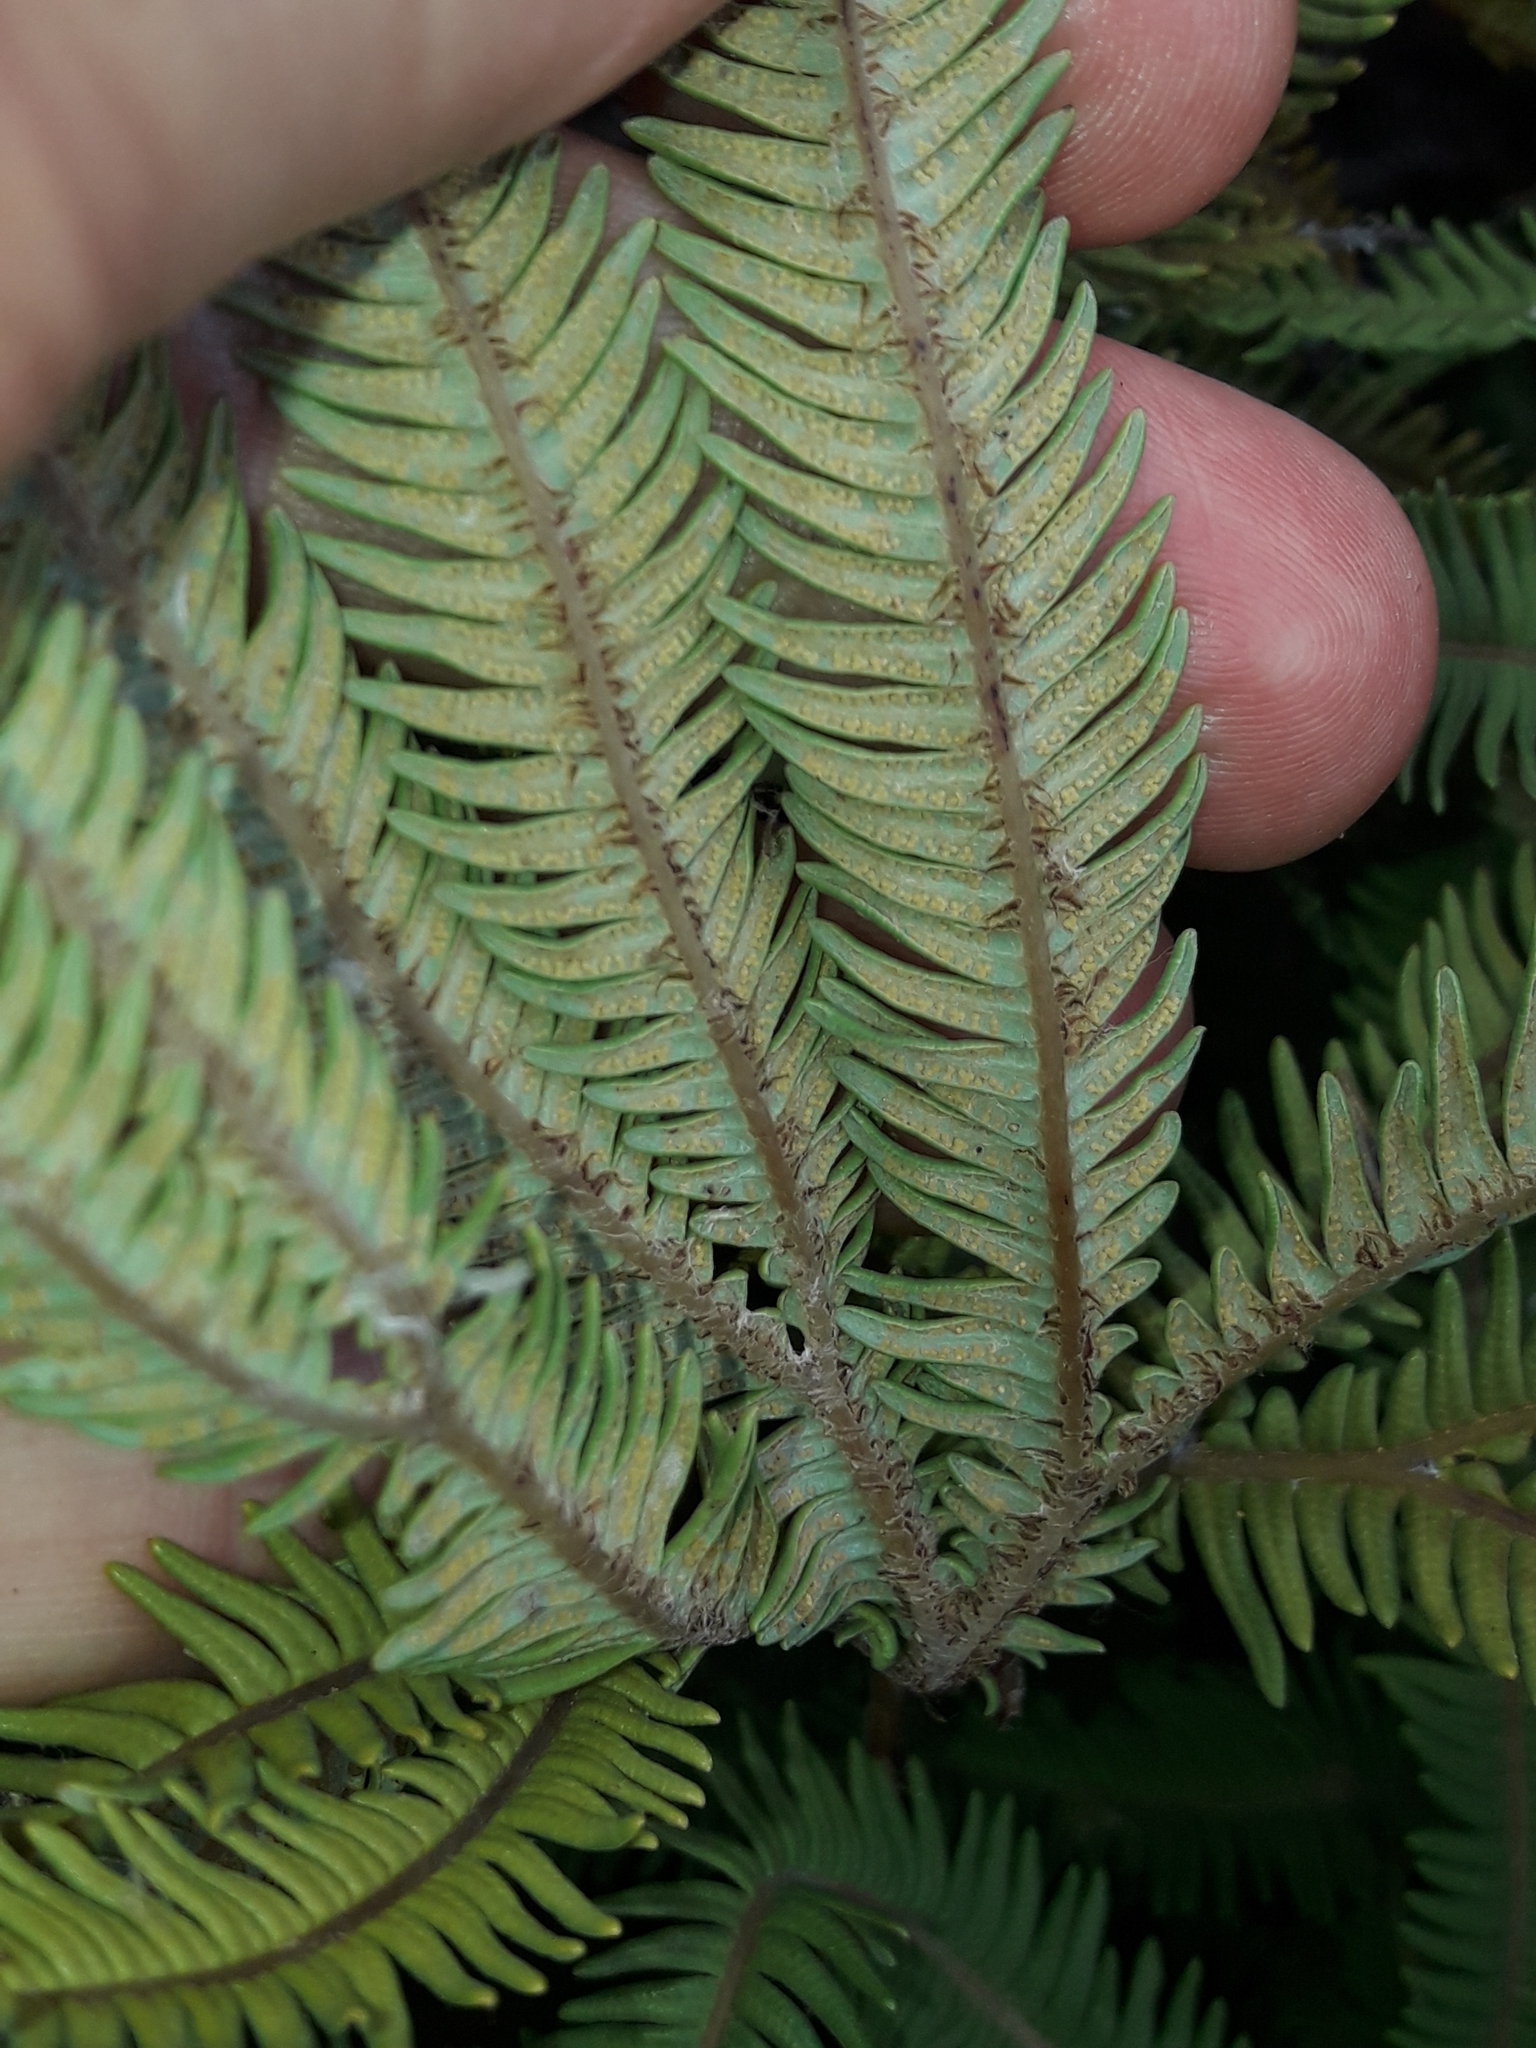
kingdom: Plantae
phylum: Tracheophyta
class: Polypodiopsida
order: Gleicheniales
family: Gleicheniaceae
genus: Sticherus
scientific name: Sticherus cunninghamii
